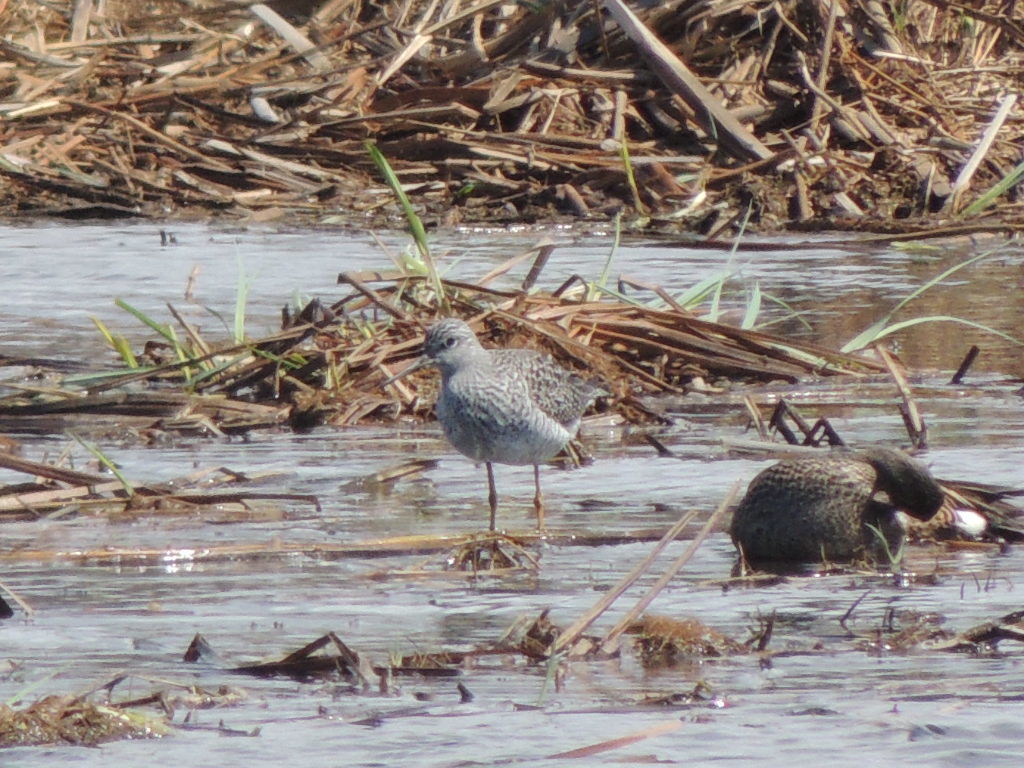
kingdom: Animalia
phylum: Chordata
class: Aves
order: Charadriiformes
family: Scolopacidae
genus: Tringa
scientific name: Tringa flavipes
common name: Lesser yellowlegs
